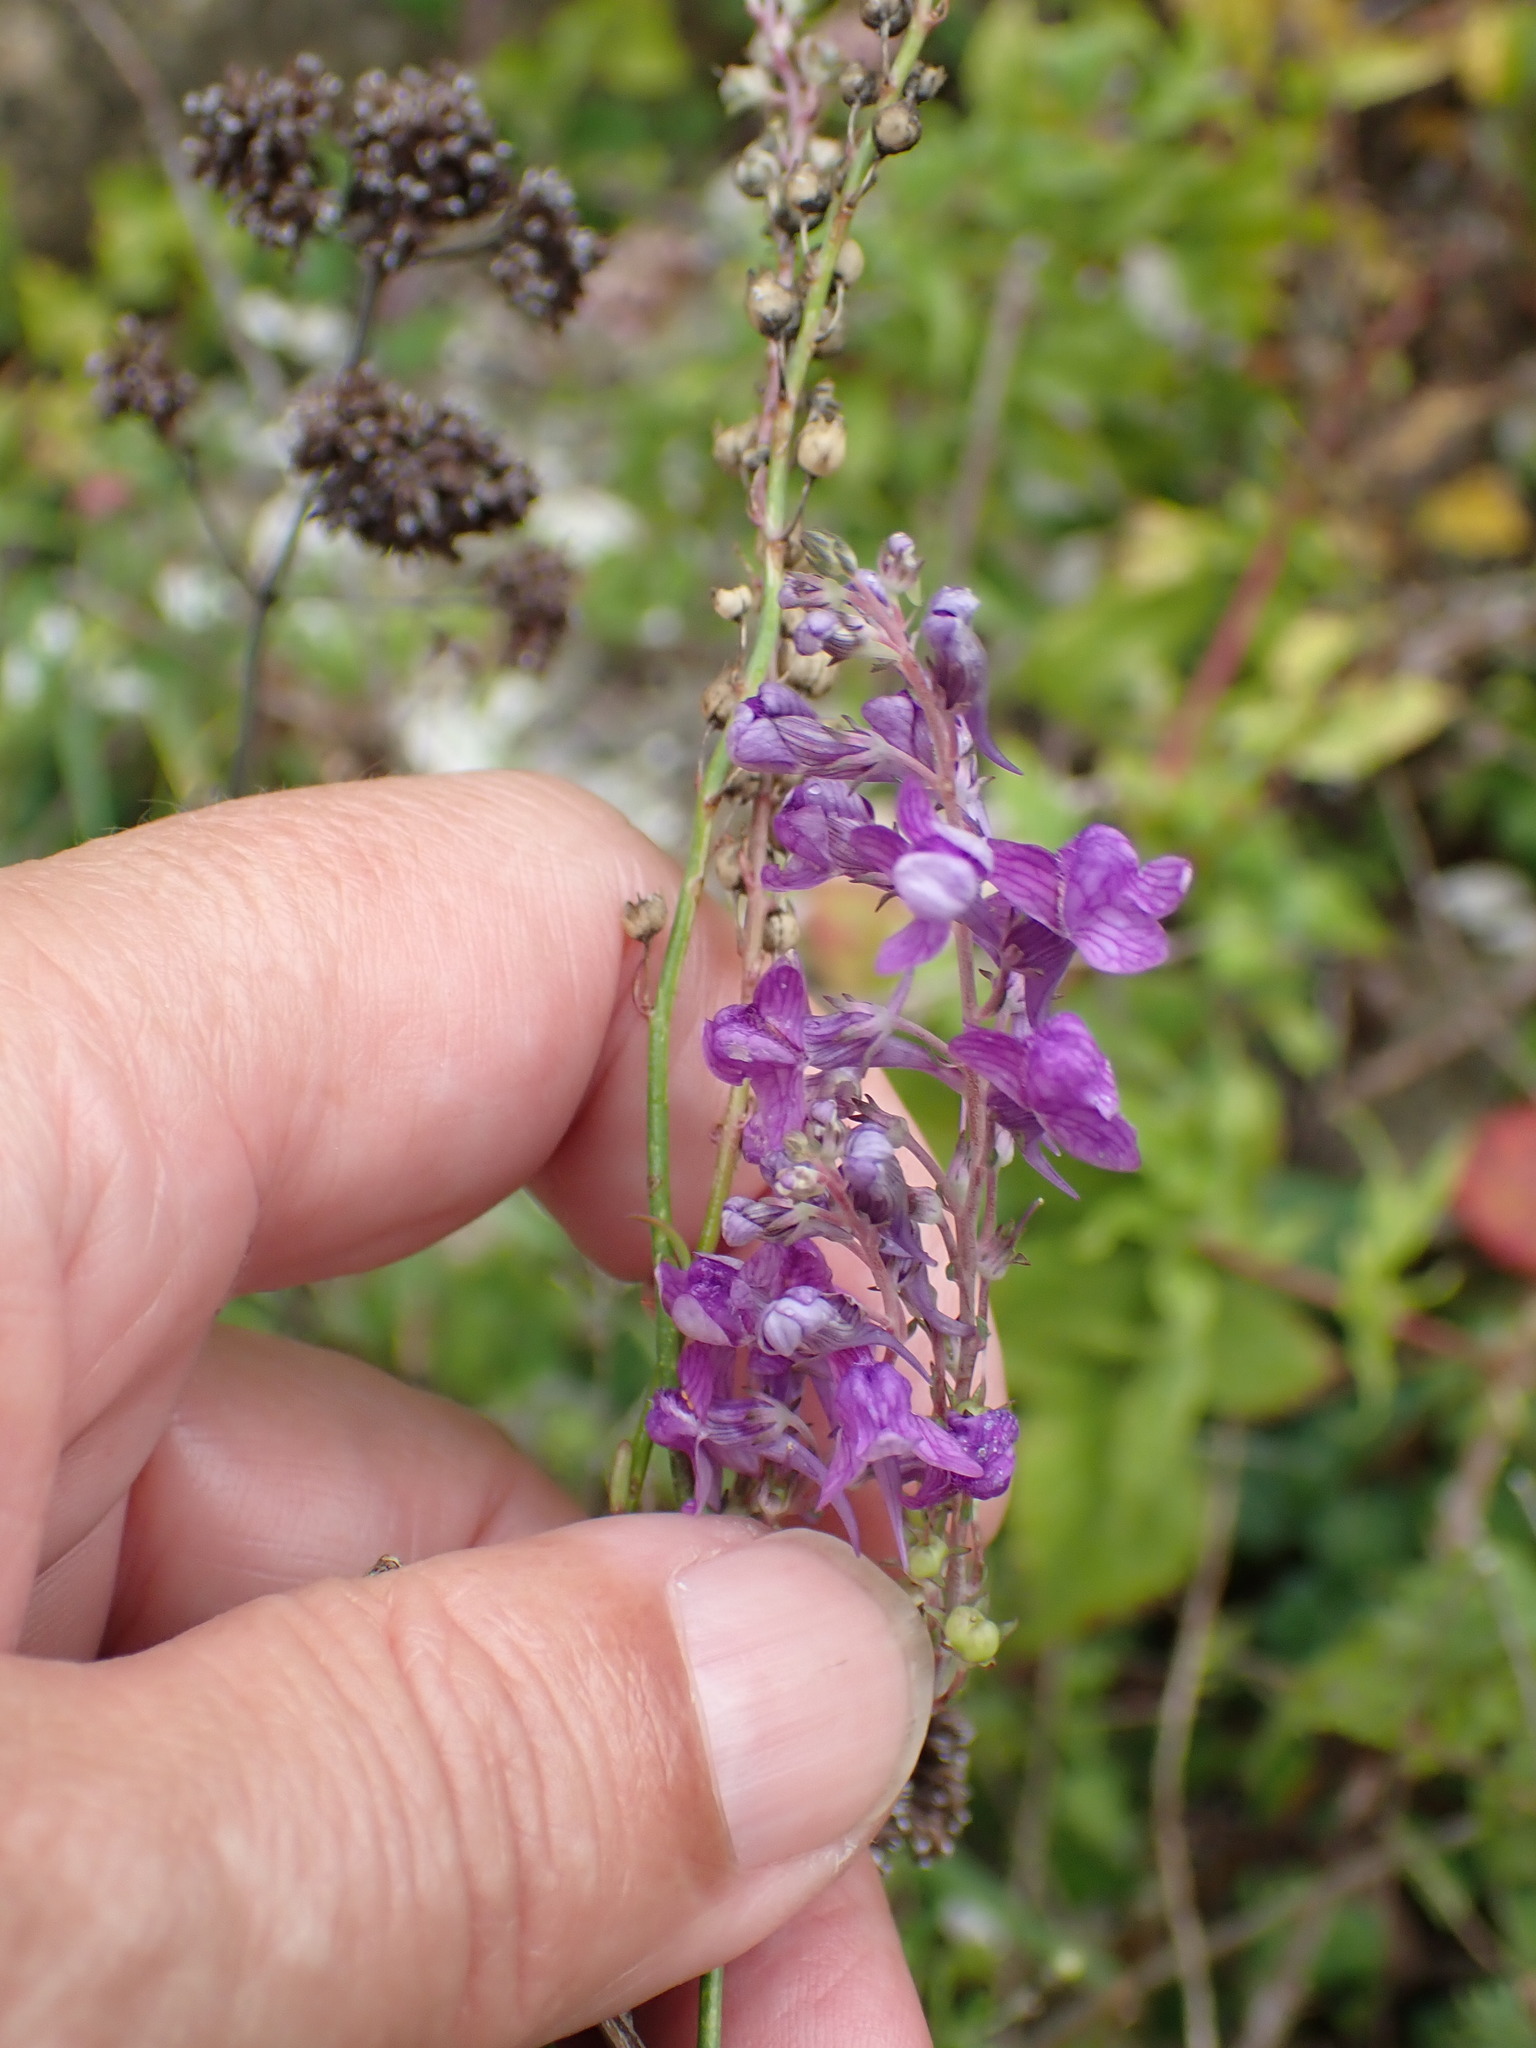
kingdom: Plantae
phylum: Tracheophyta
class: Magnoliopsida
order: Lamiales
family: Plantaginaceae
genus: Linaria
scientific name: Linaria purpurea
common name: Purple toadflax
